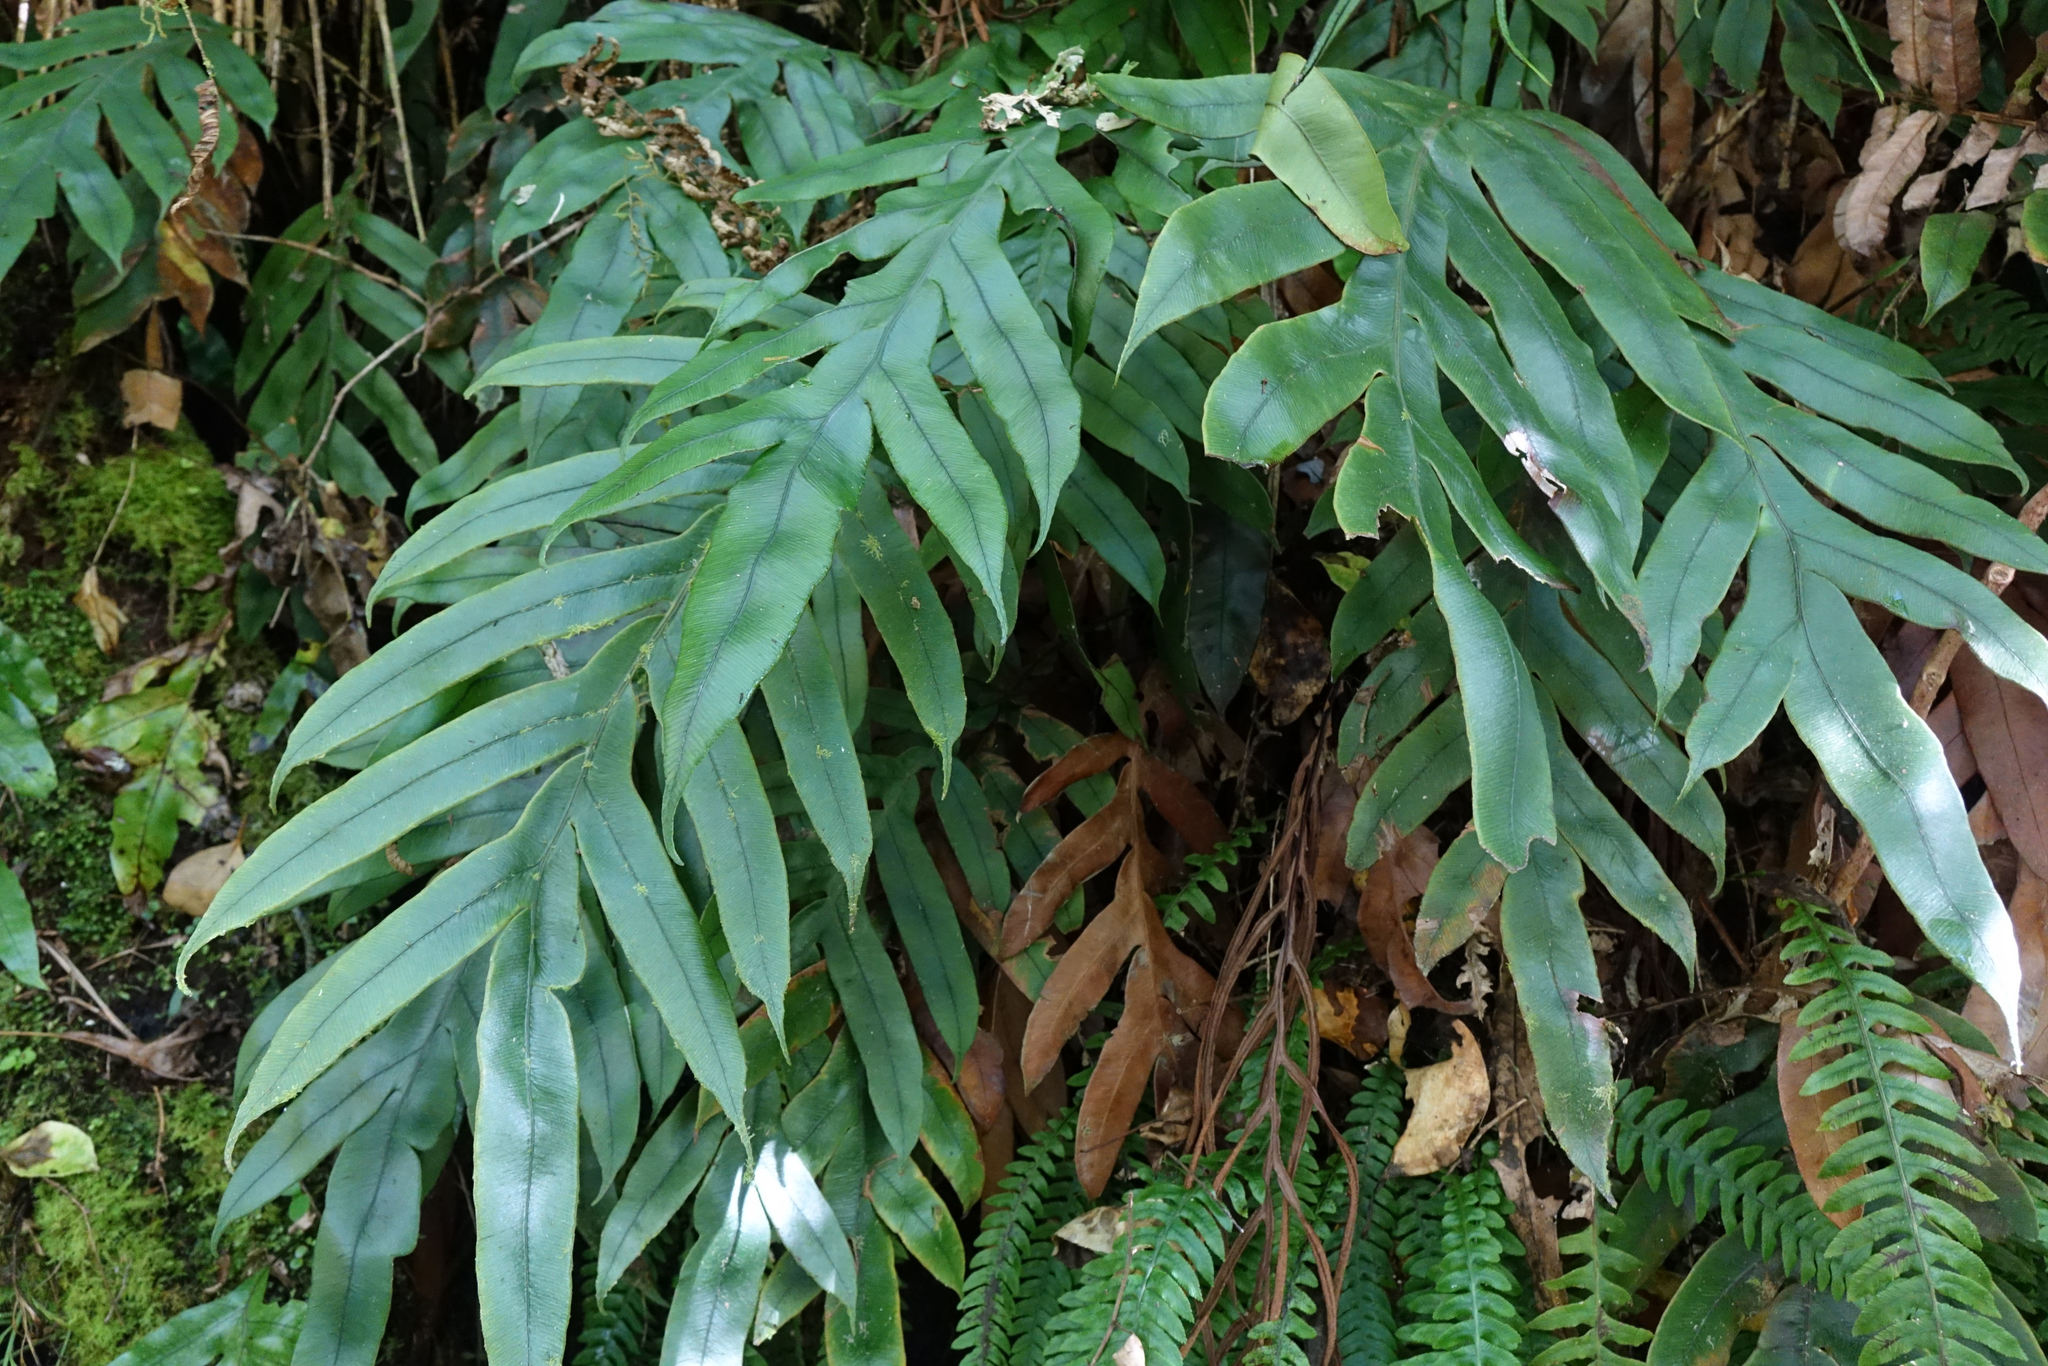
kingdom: Plantae
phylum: Tracheophyta
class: Polypodiopsida
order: Polypodiales
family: Blechnaceae
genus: Austroblechnum
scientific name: Austroblechnum colensoi
